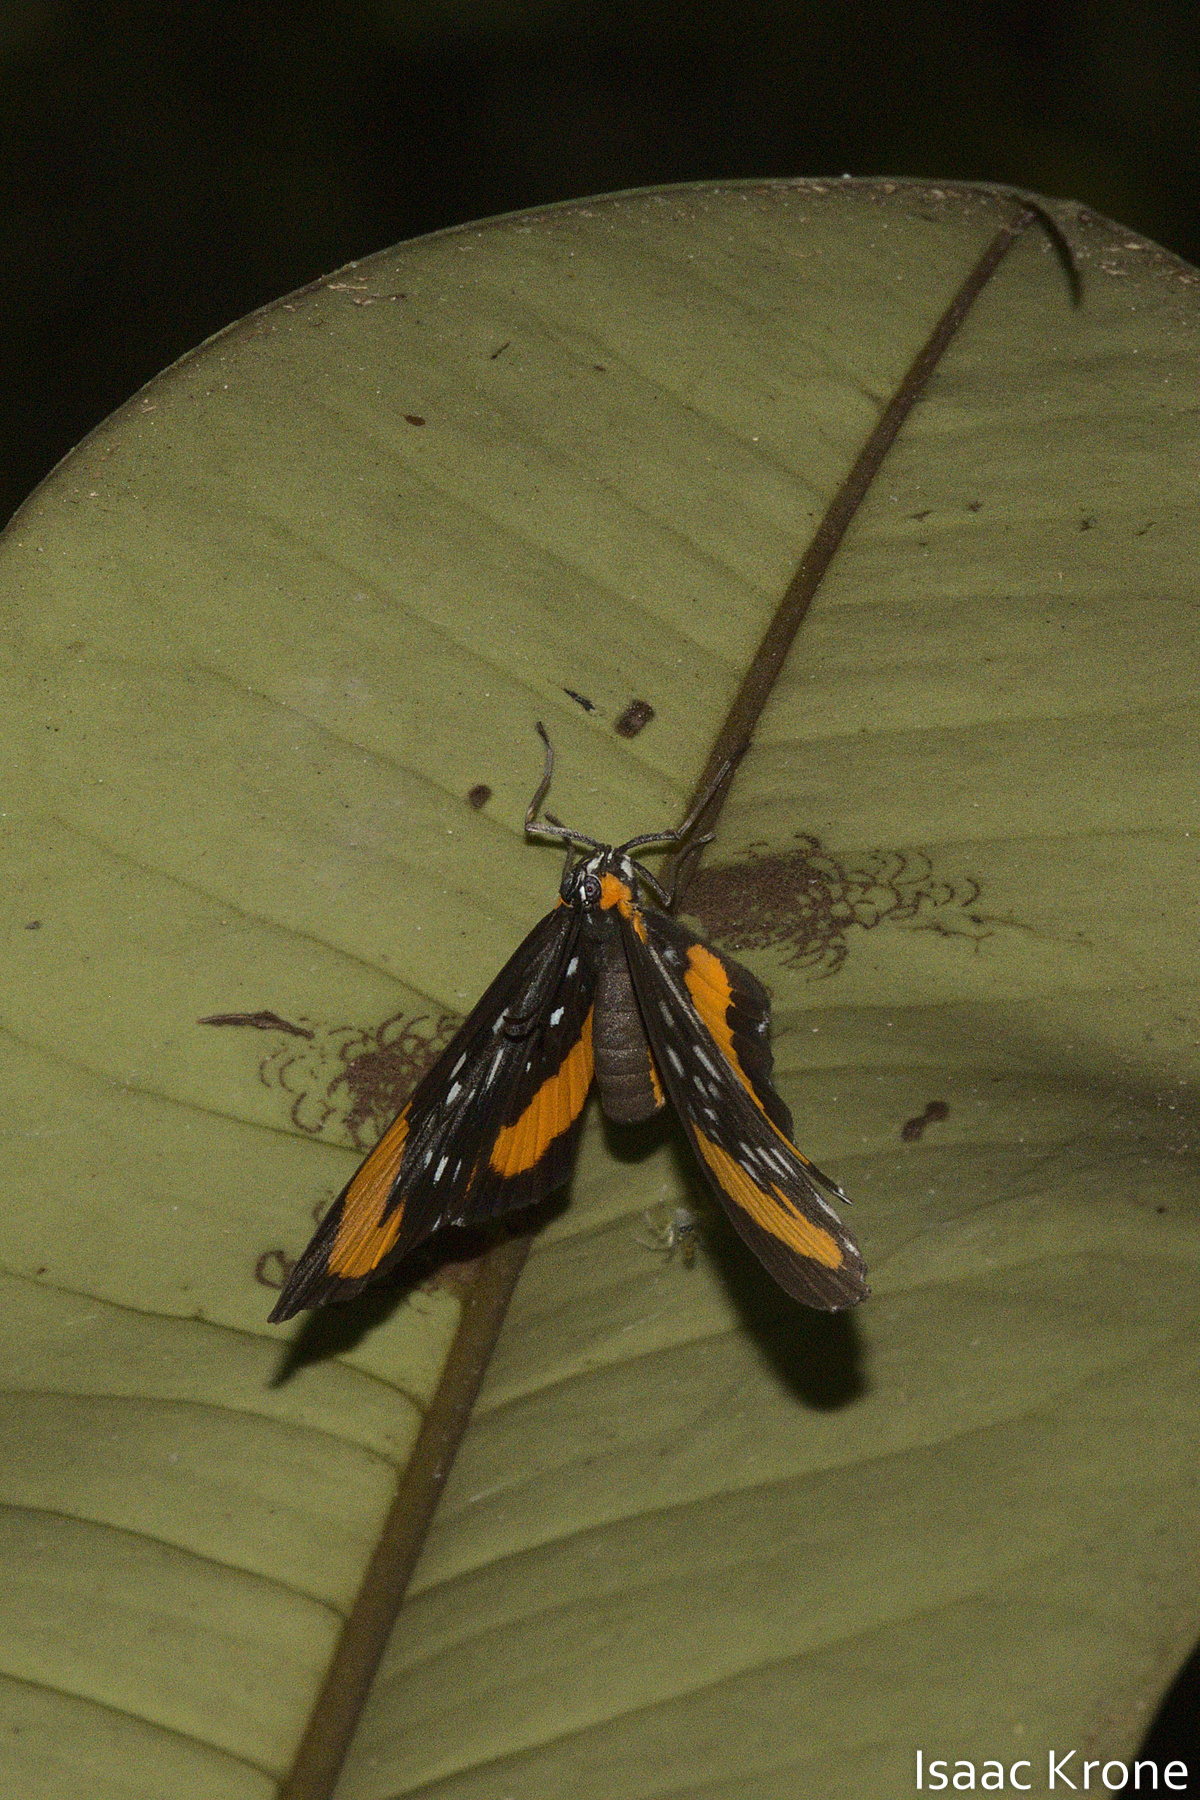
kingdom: Animalia
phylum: Arthropoda
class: Insecta
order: Lepidoptera
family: Riodinidae
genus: Stalachtis
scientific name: Stalachtis euterpe
